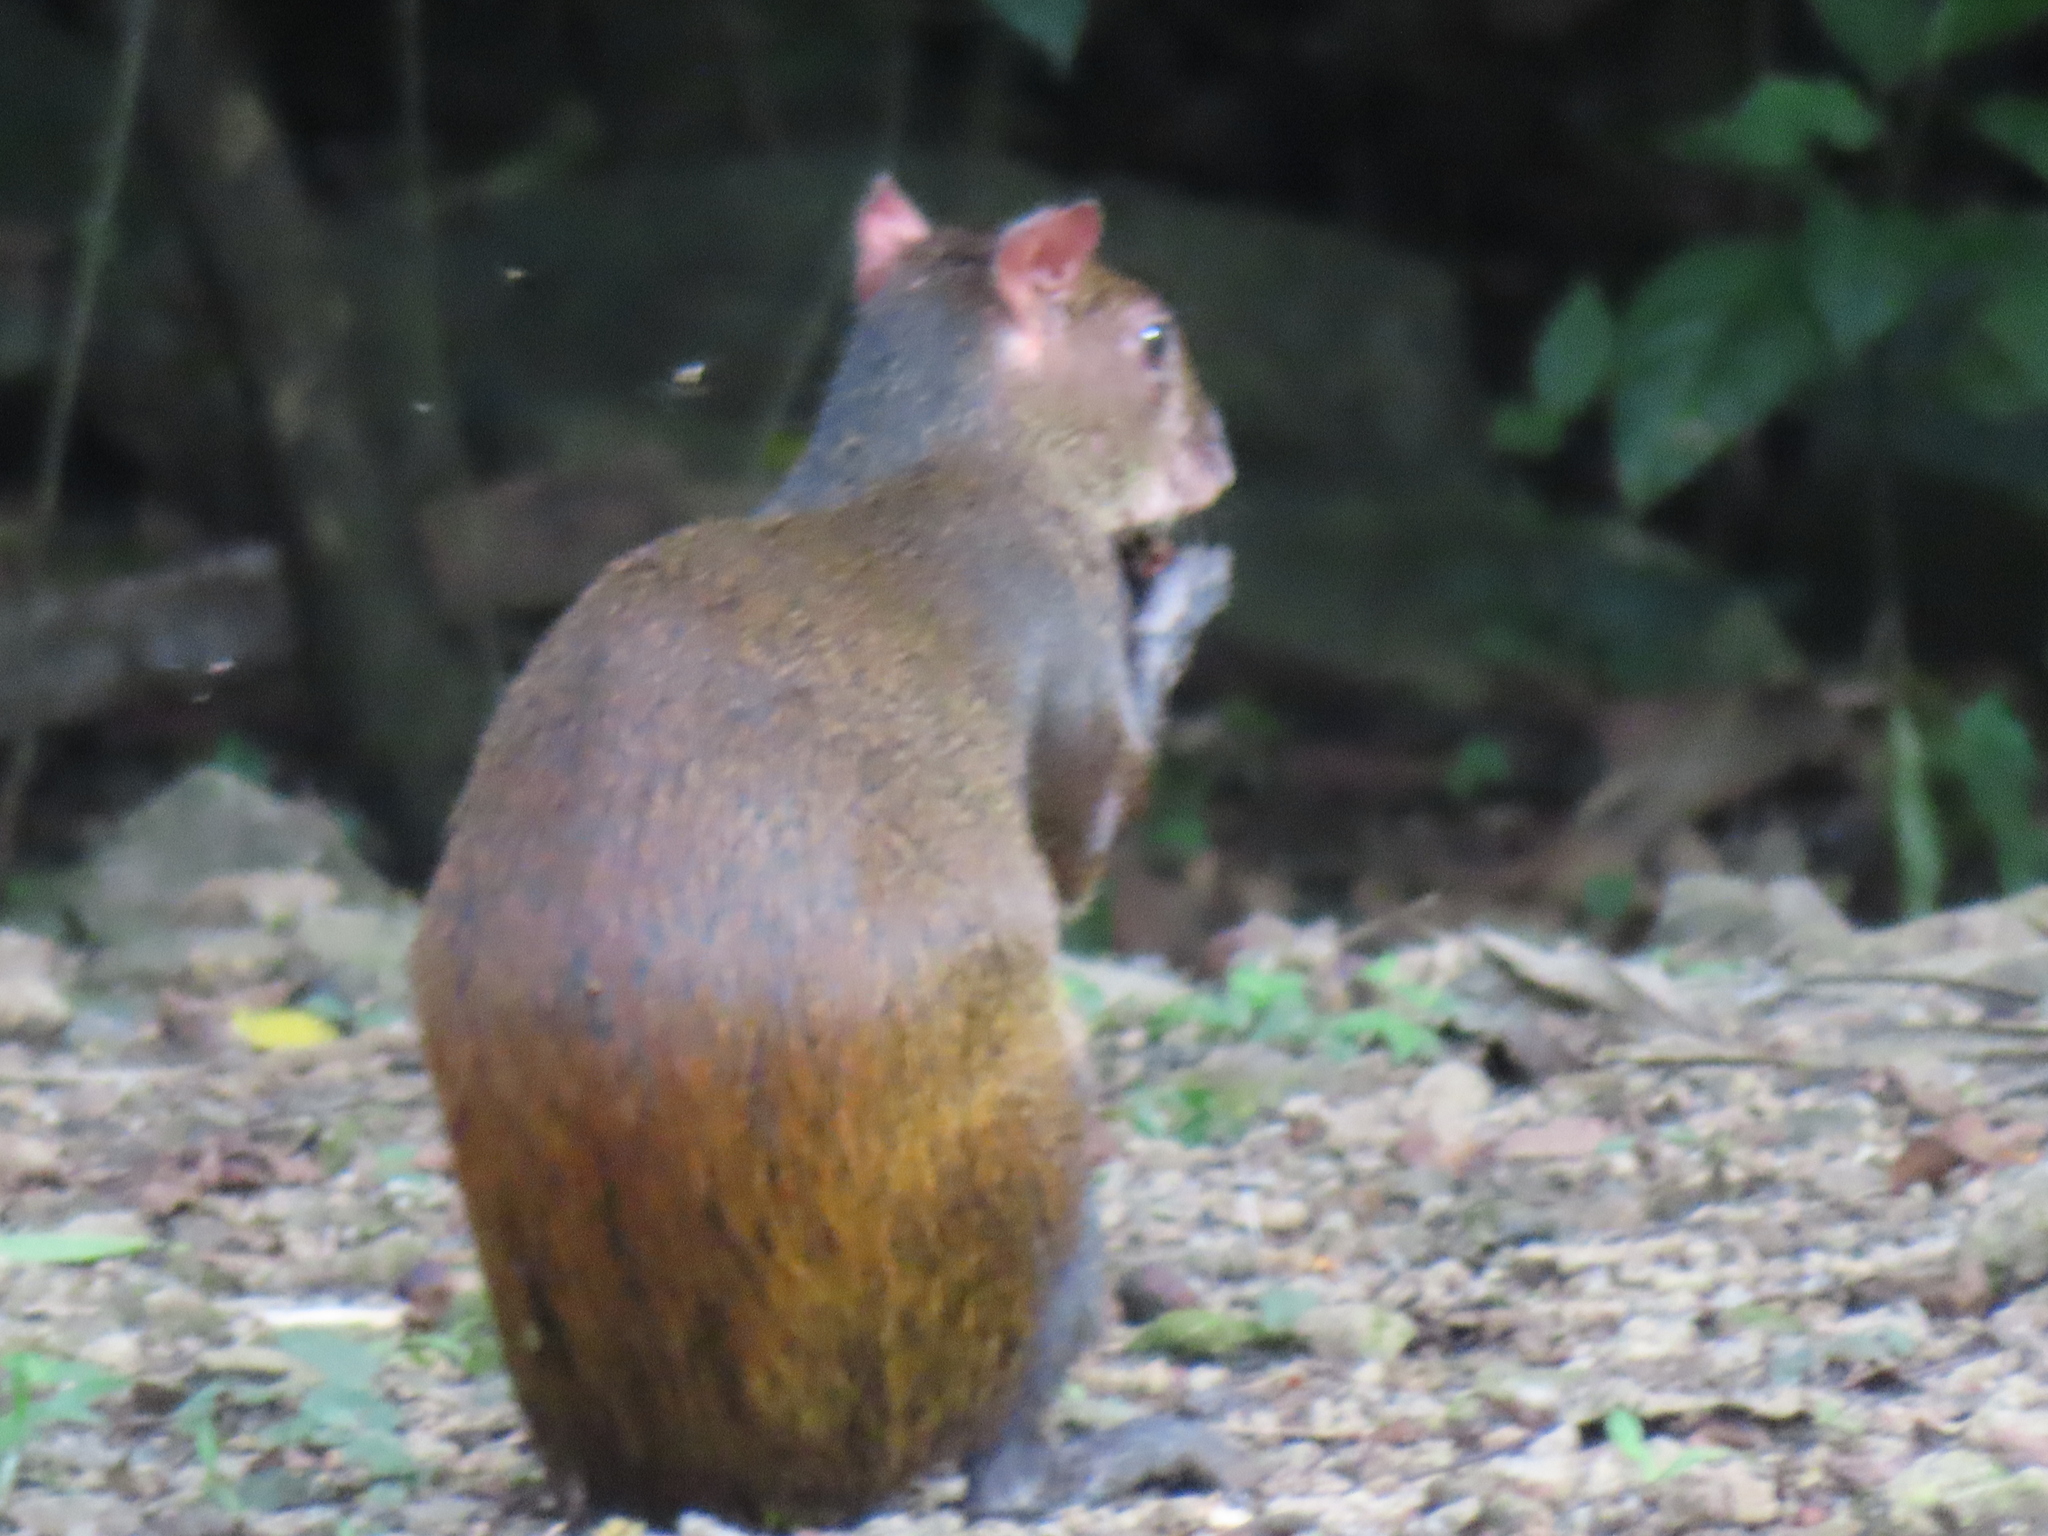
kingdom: Animalia
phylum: Chordata
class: Mammalia
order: Rodentia
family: Dasyproctidae
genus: Dasyprocta
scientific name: Dasyprocta punctata
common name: Central american agouti
